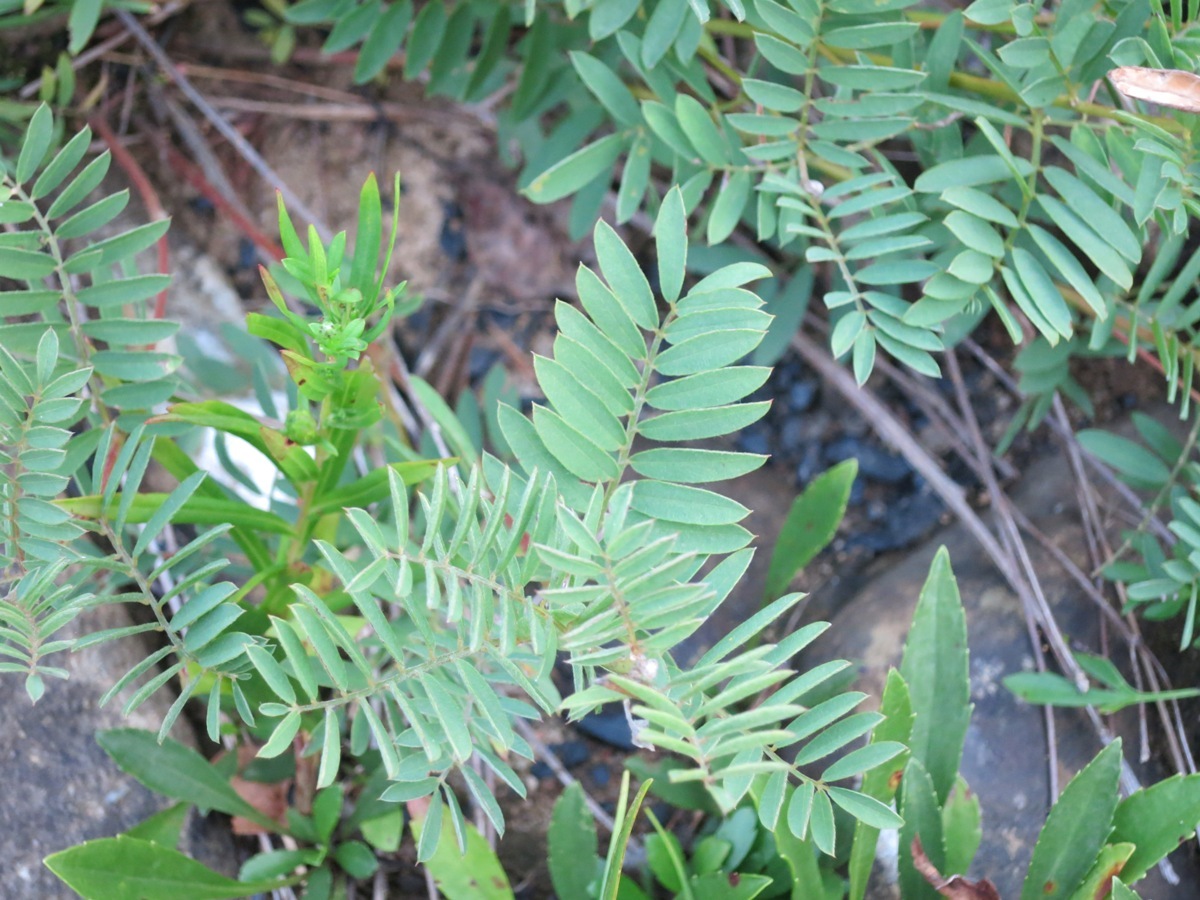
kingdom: Plantae
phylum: Tracheophyta
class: Magnoliopsida
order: Fabales
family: Fabaceae
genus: Tephrosia
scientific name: Tephrosia virginiana
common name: Rabbit-pea
